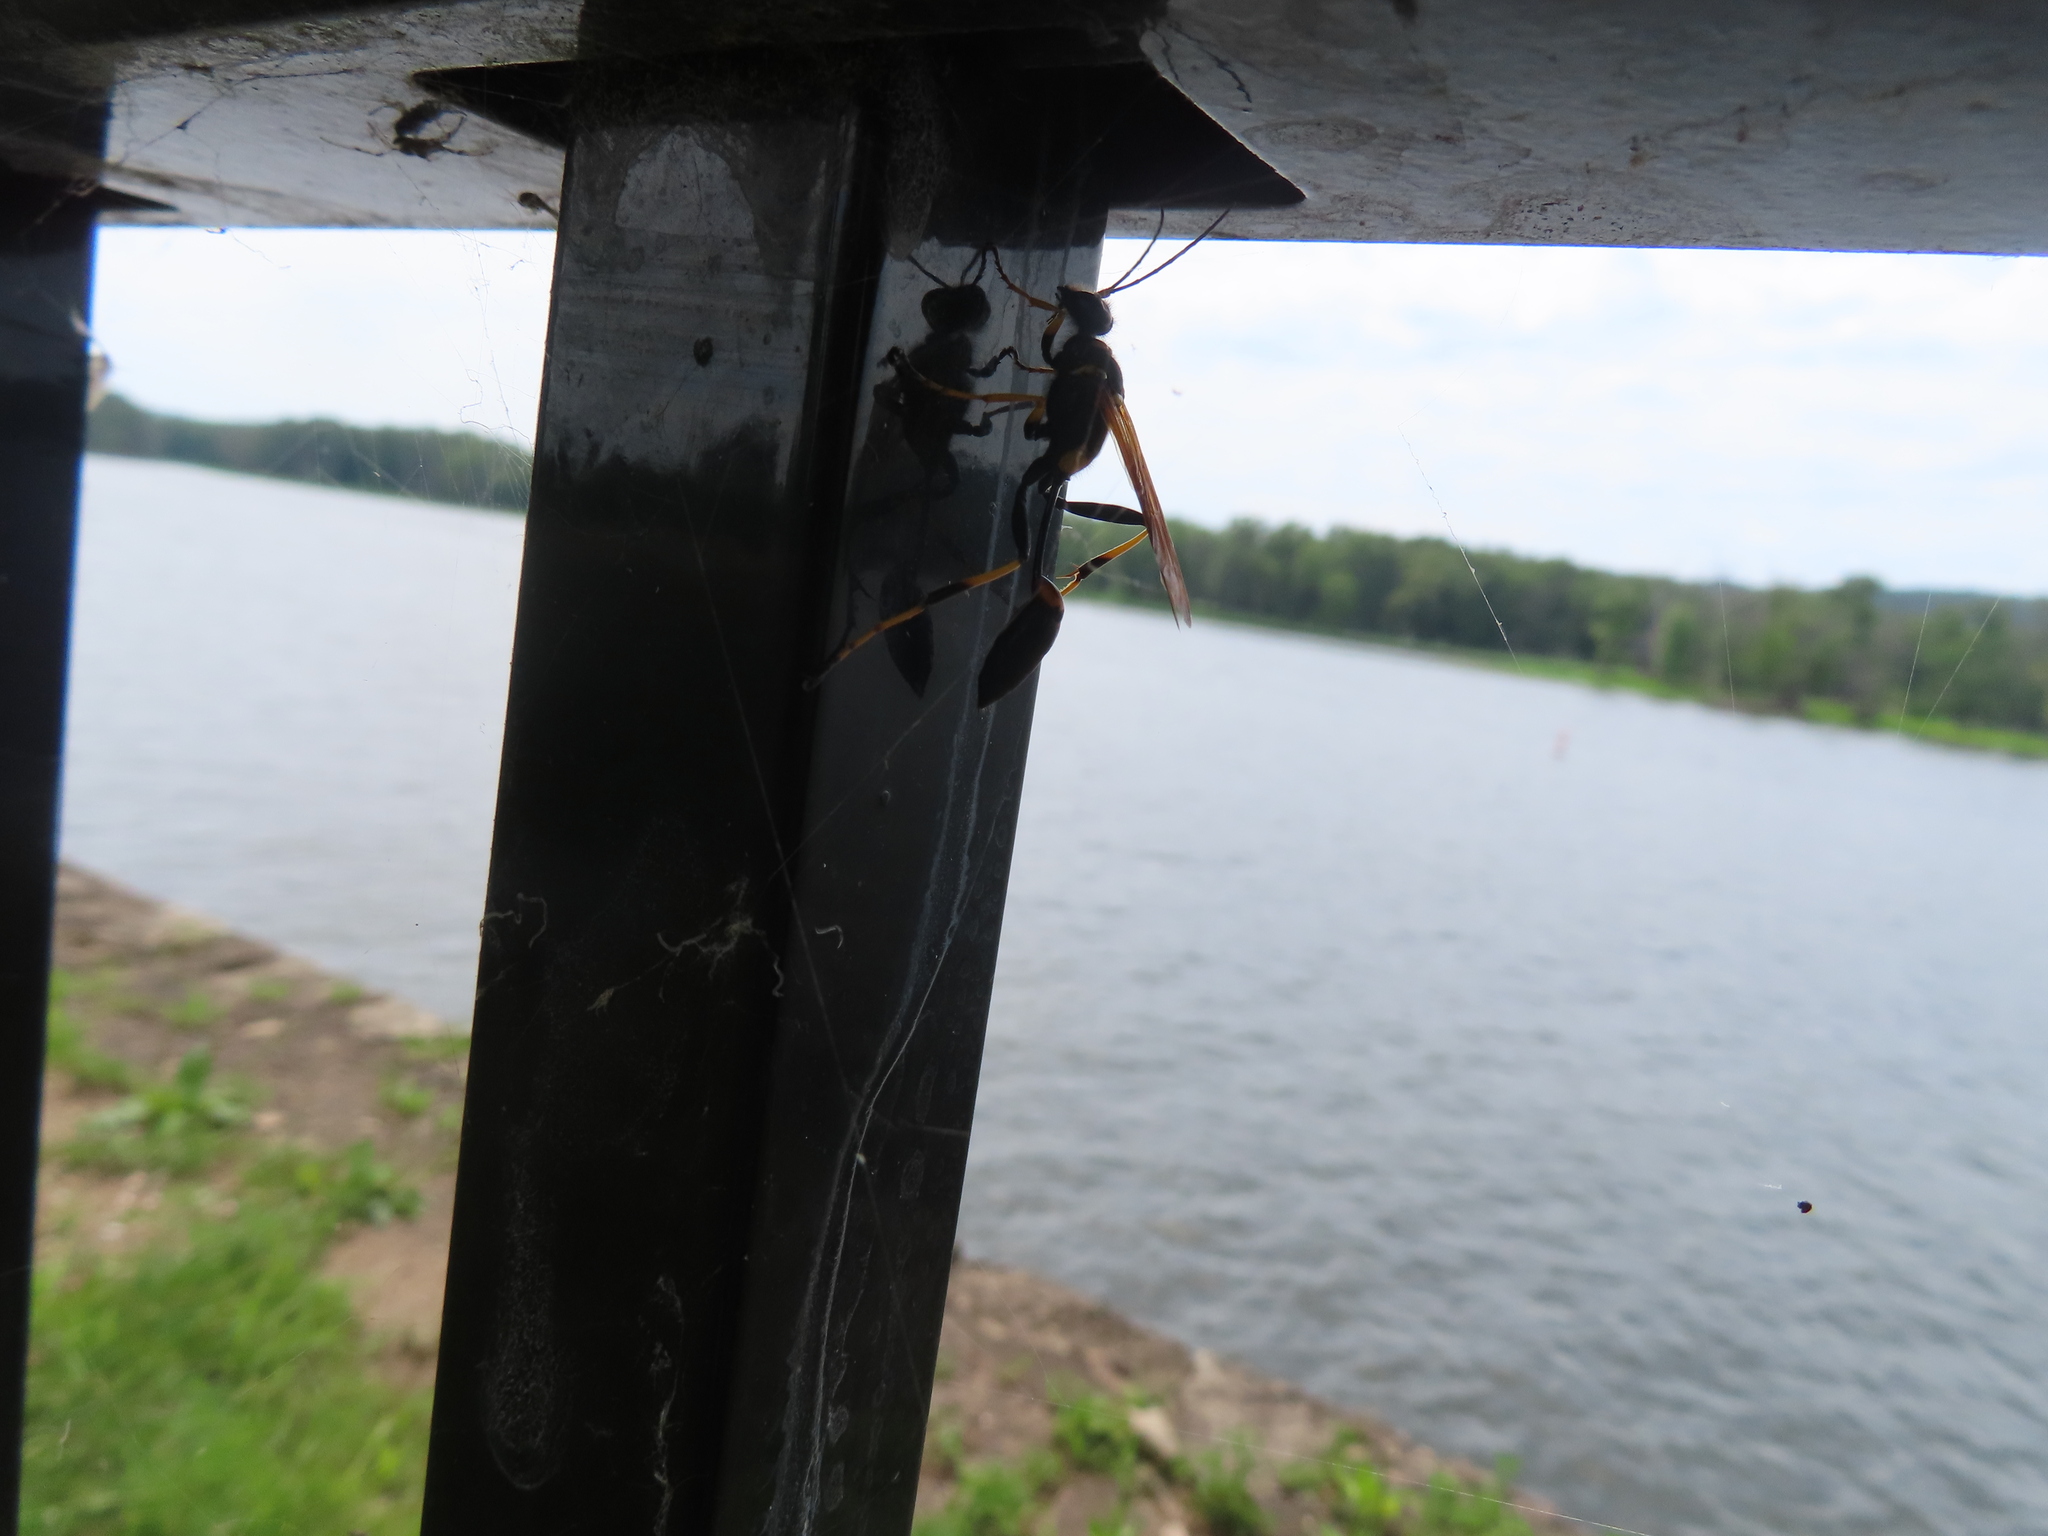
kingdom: Animalia
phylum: Arthropoda
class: Insecta
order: Hymenoptera
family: Sphecidae
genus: Sceliphron
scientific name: Sceliphron caementarium
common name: Mud dauber
